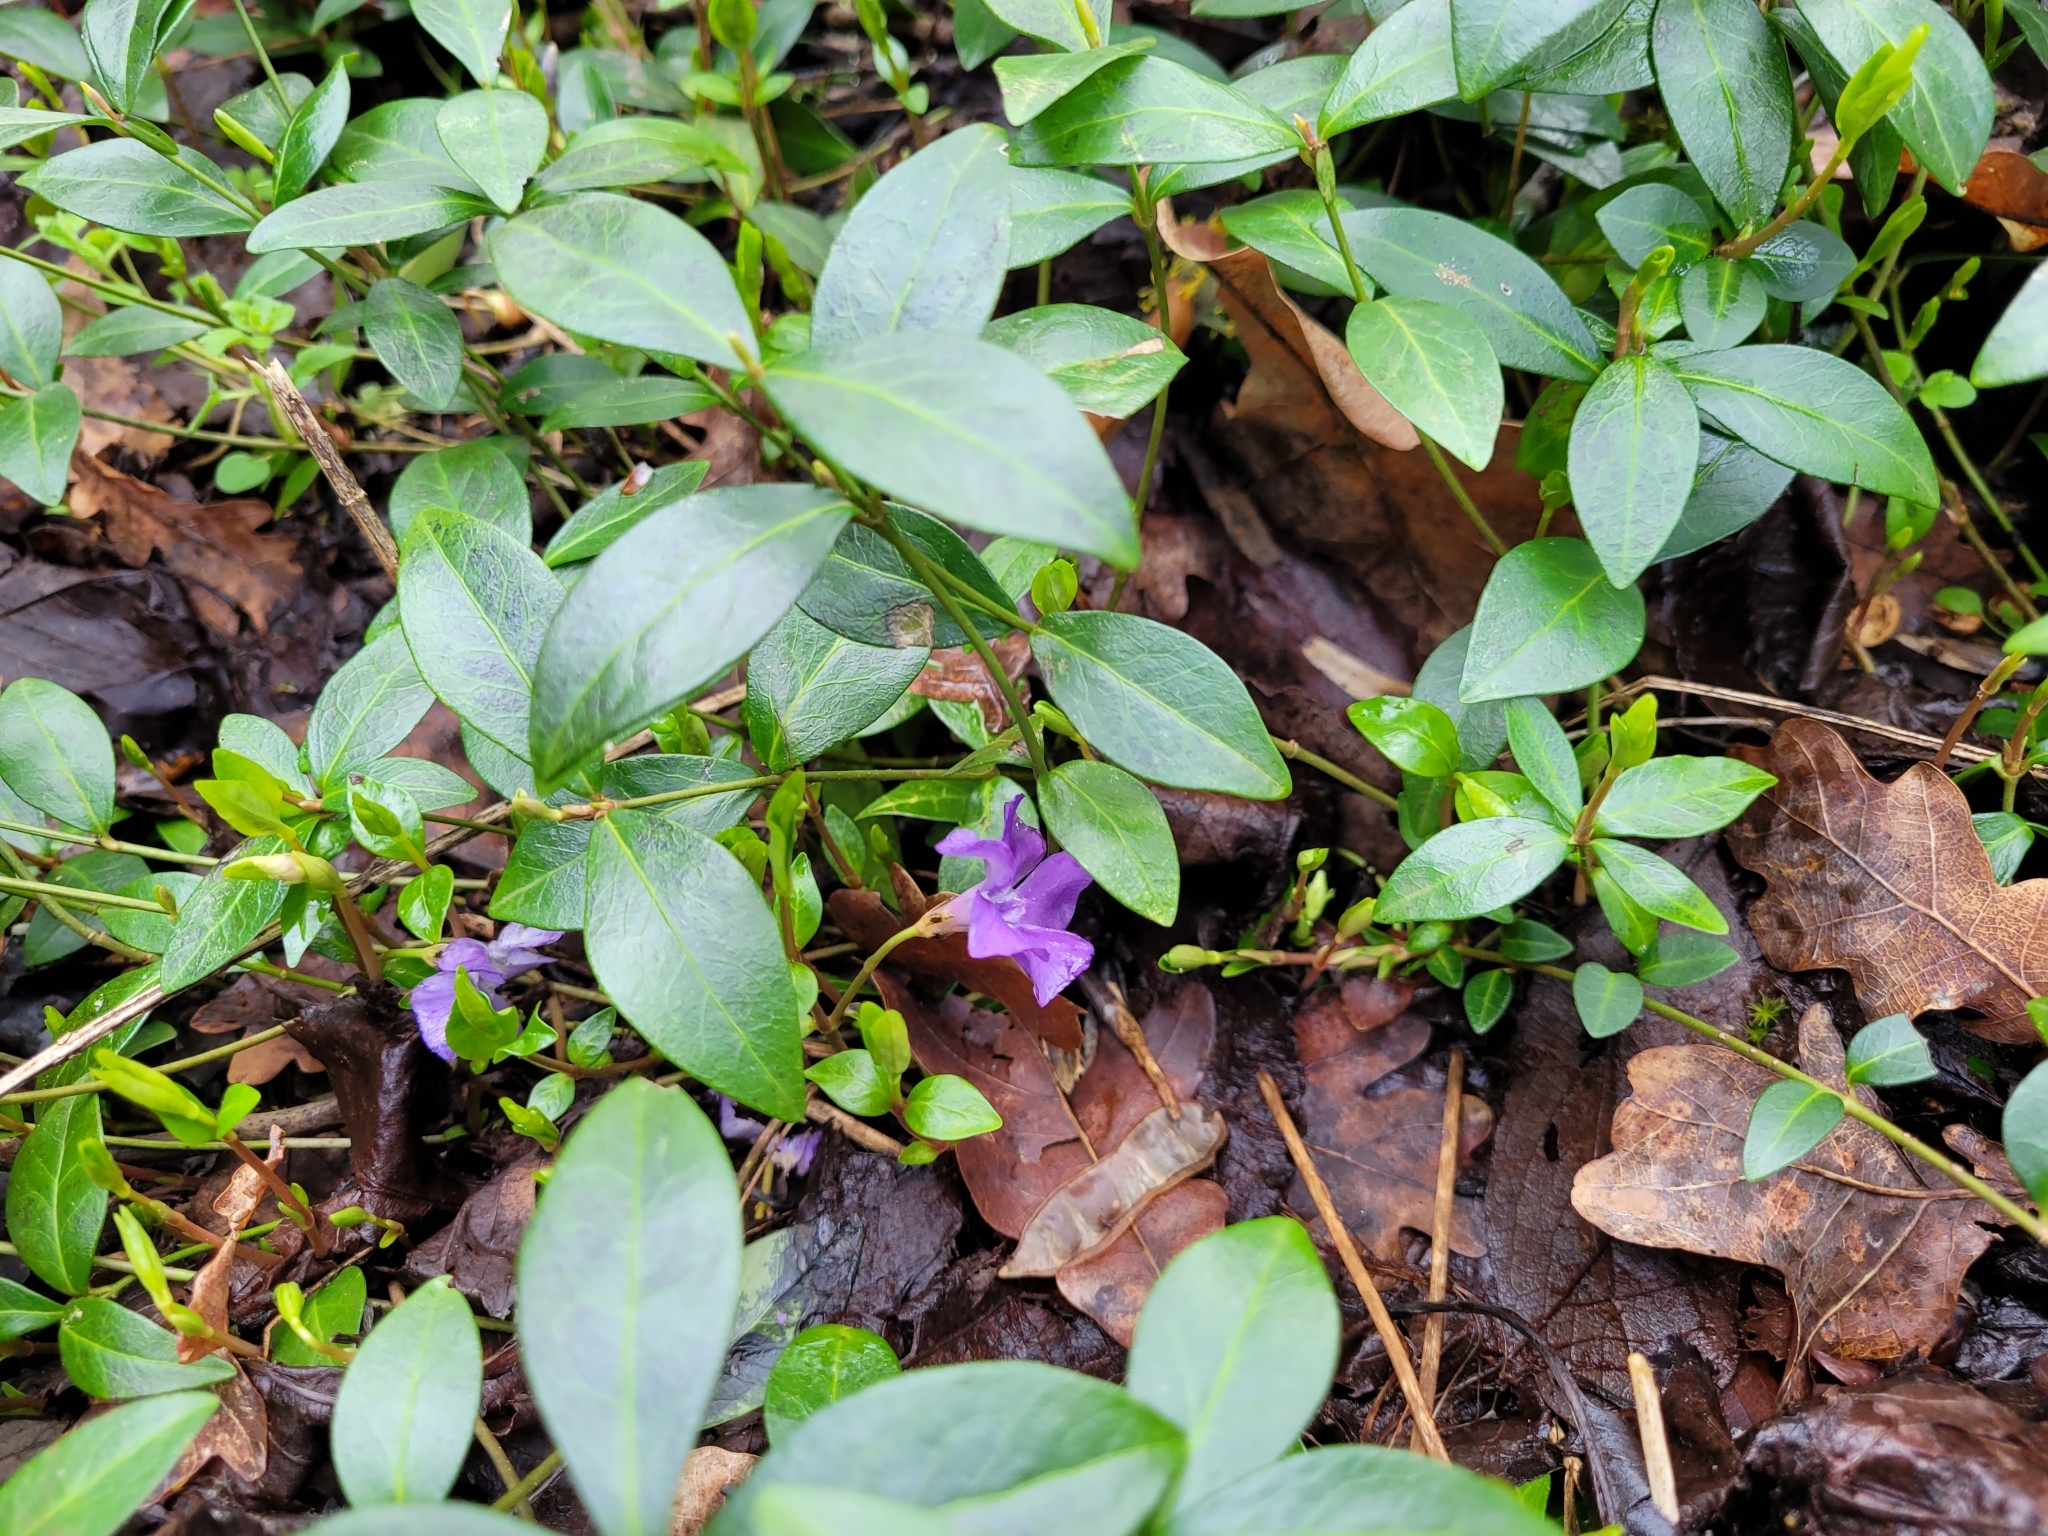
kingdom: Plantae
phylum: Tracheophyta
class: Magnoliopsida
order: Gentianales
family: Apocynaceae
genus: Vinca
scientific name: Vinca minor
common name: Lesser periwinkle
